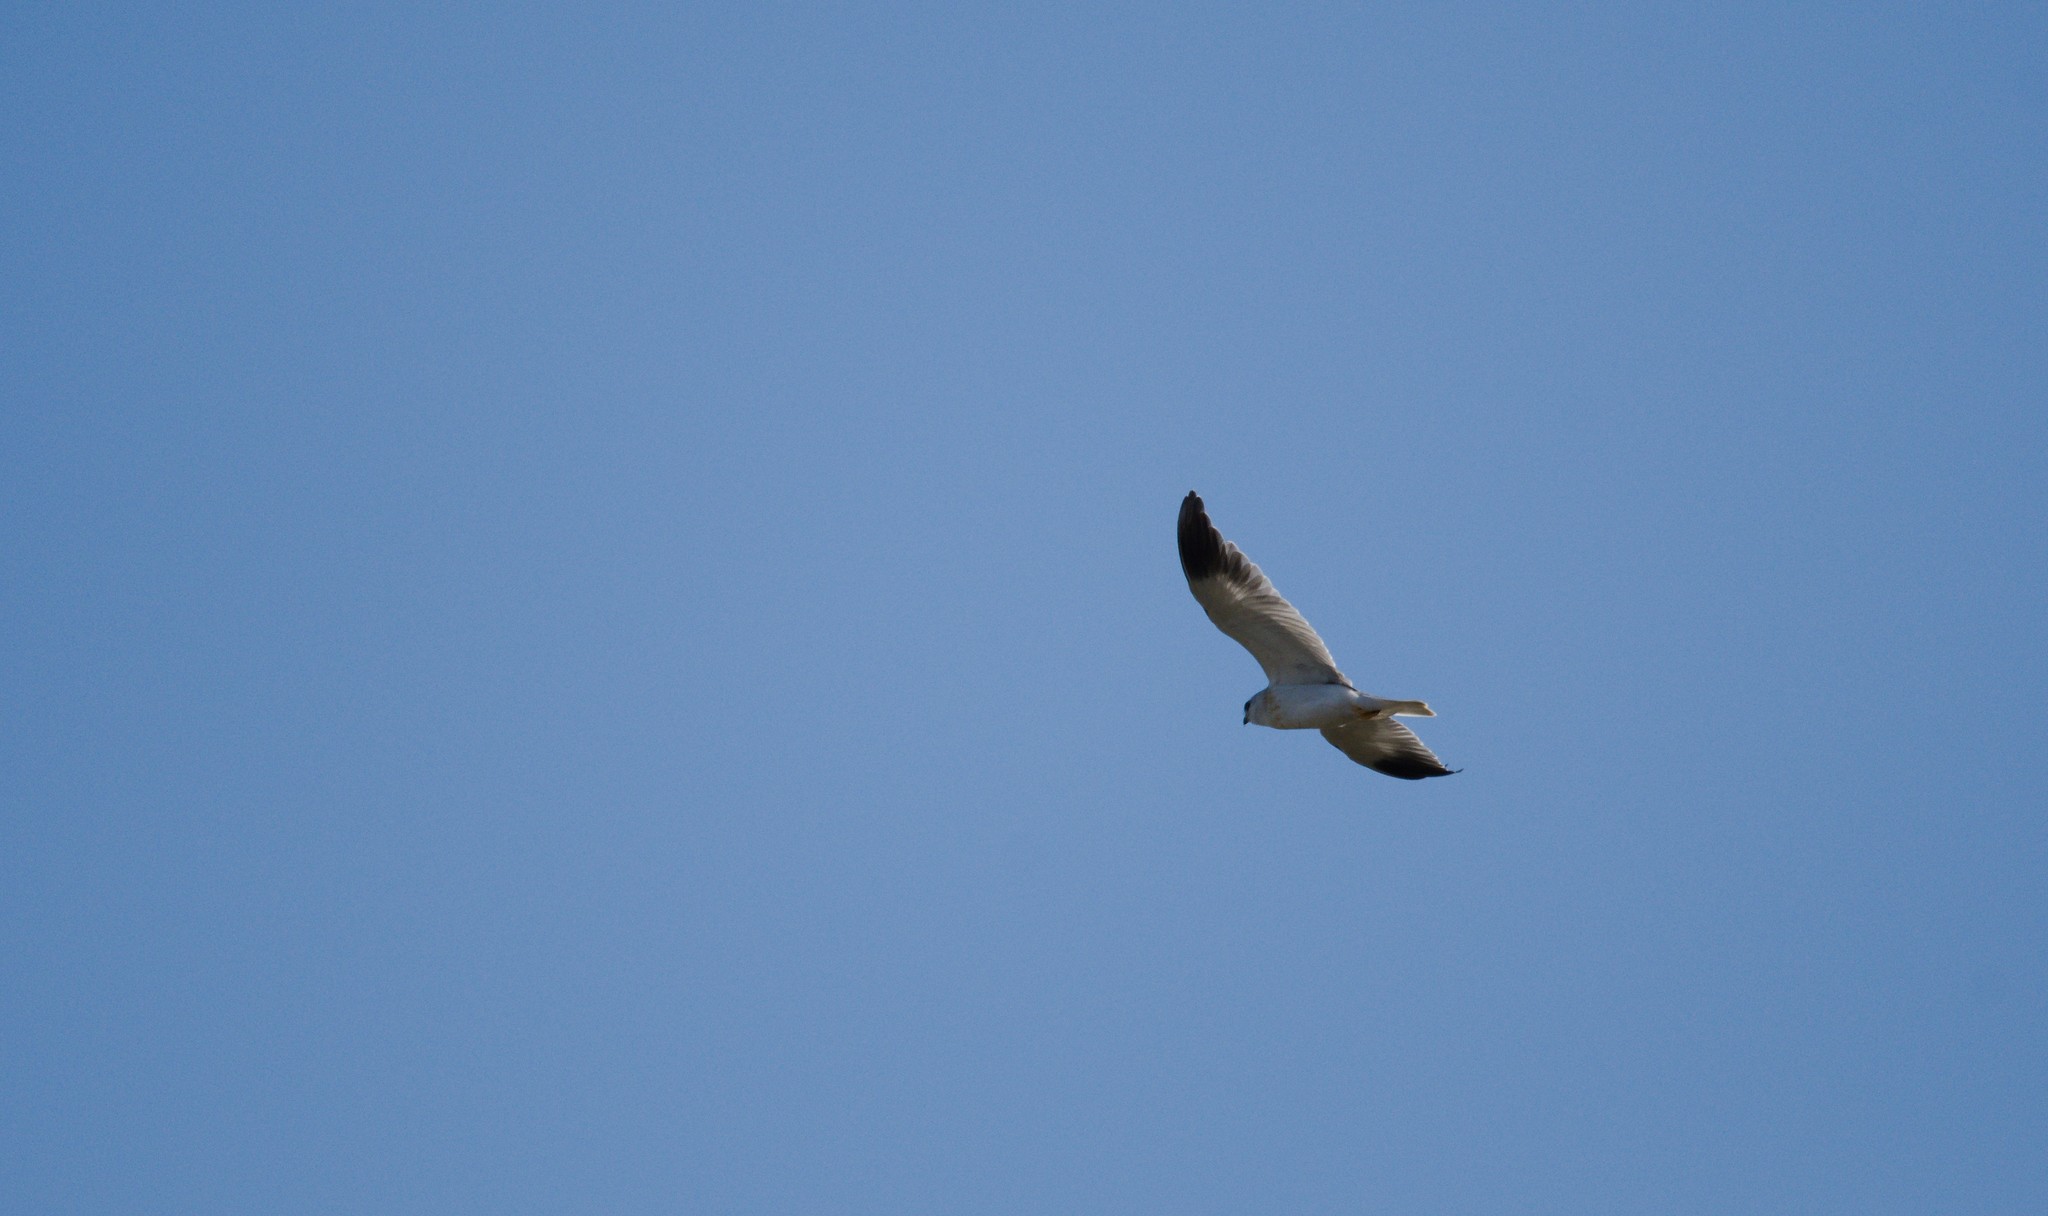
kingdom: Animalia
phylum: Chordata
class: Aves
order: Accipitriformes
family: Accipitridae
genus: Elanus
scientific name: Elanus caeruleus
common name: Black-winged kite
